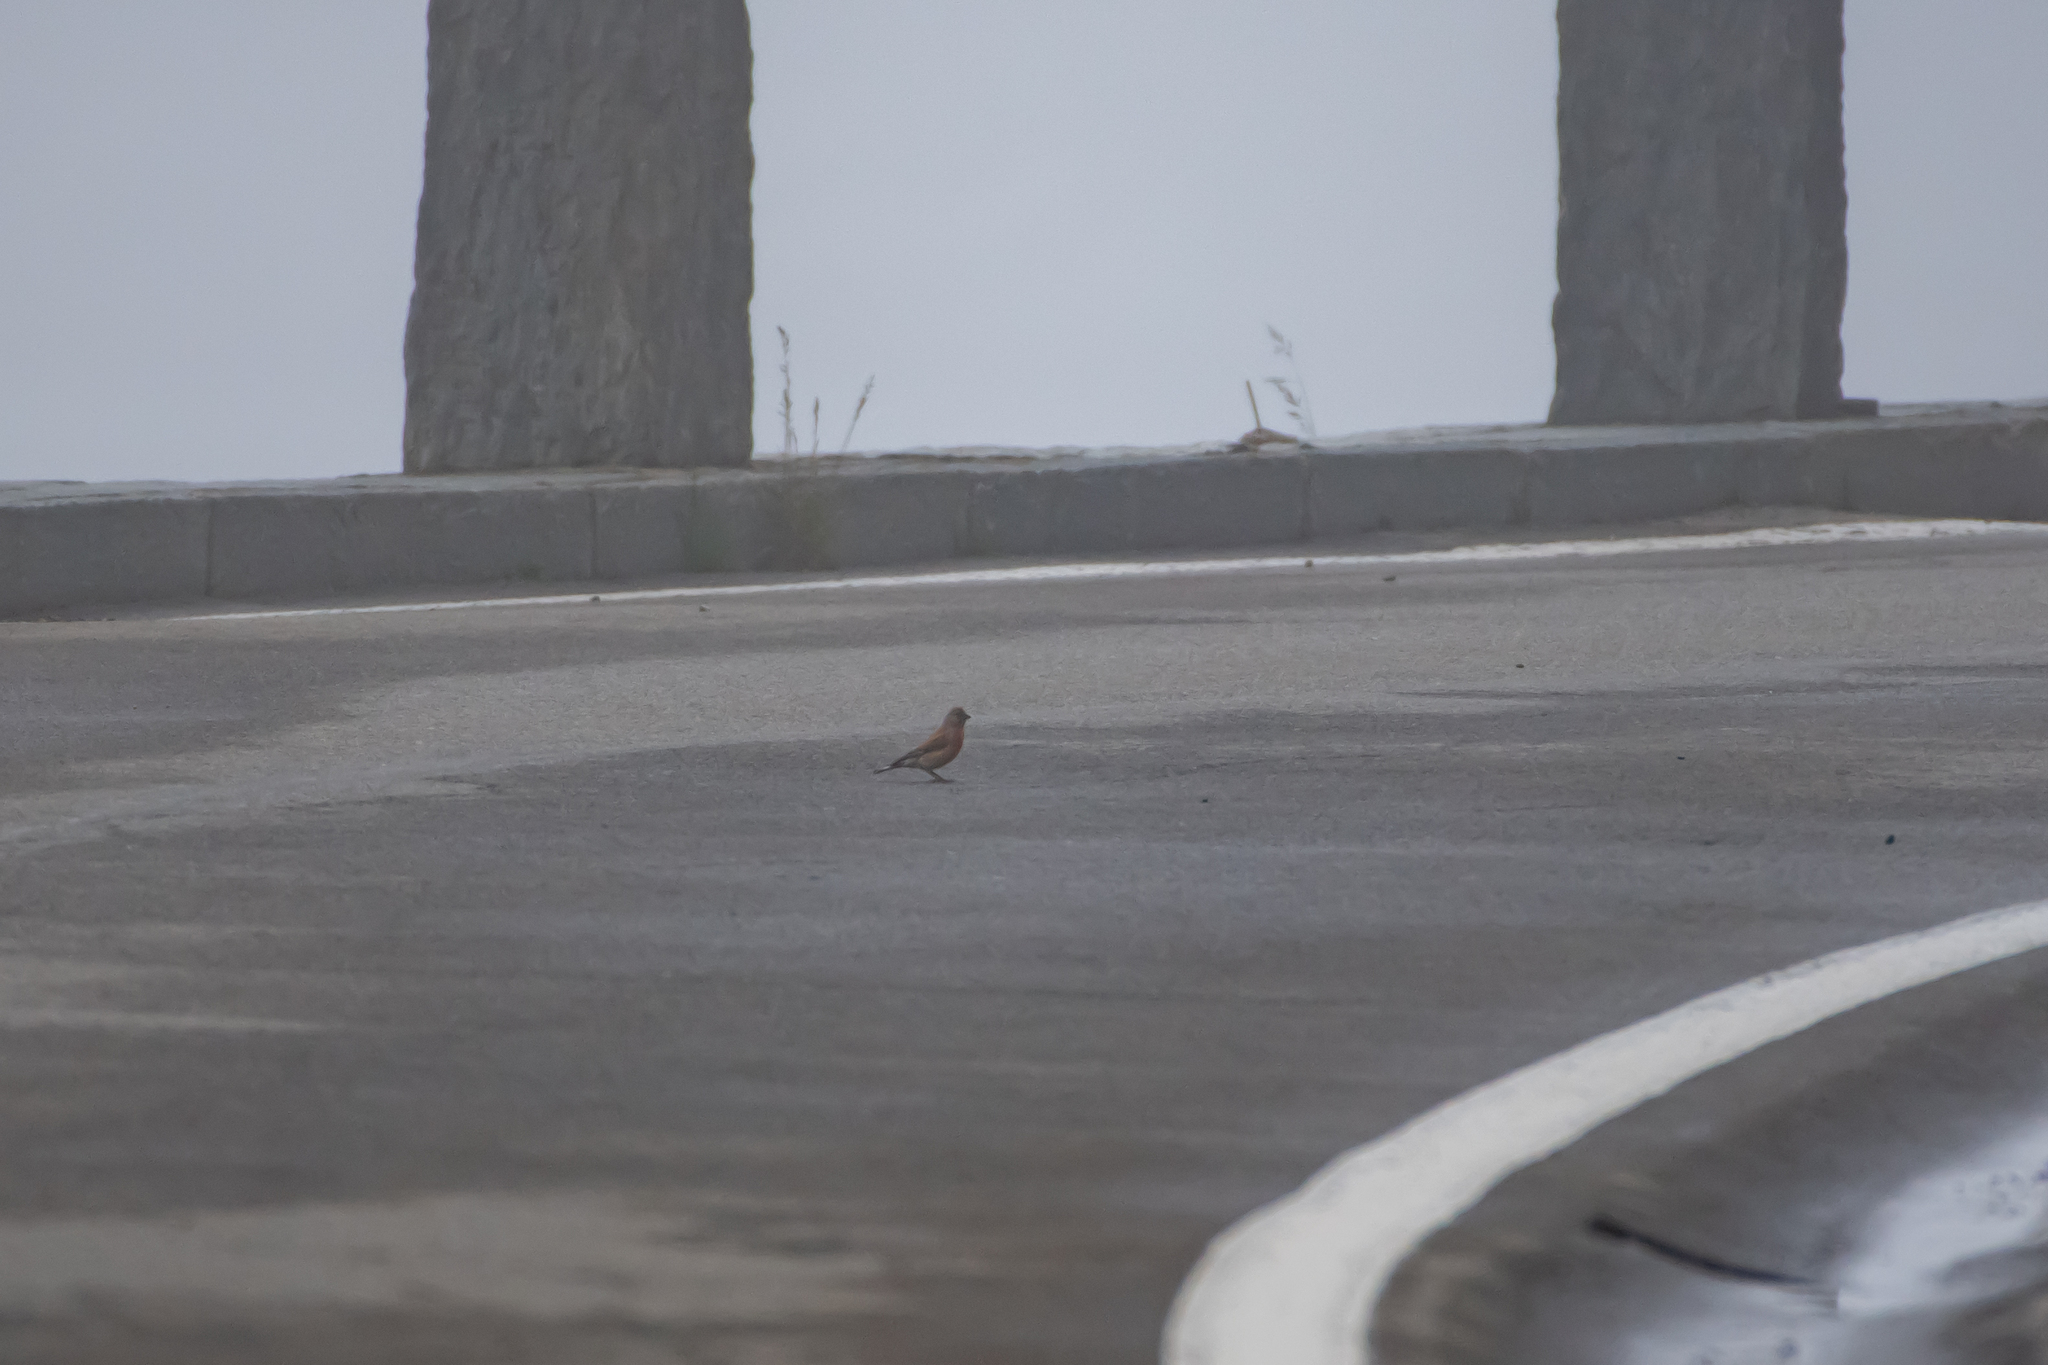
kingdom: Animalia
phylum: Chordata
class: Aves
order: Passeriformes
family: Fringillidae
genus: Linaria
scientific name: Linaria cannabina
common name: Common linnet
